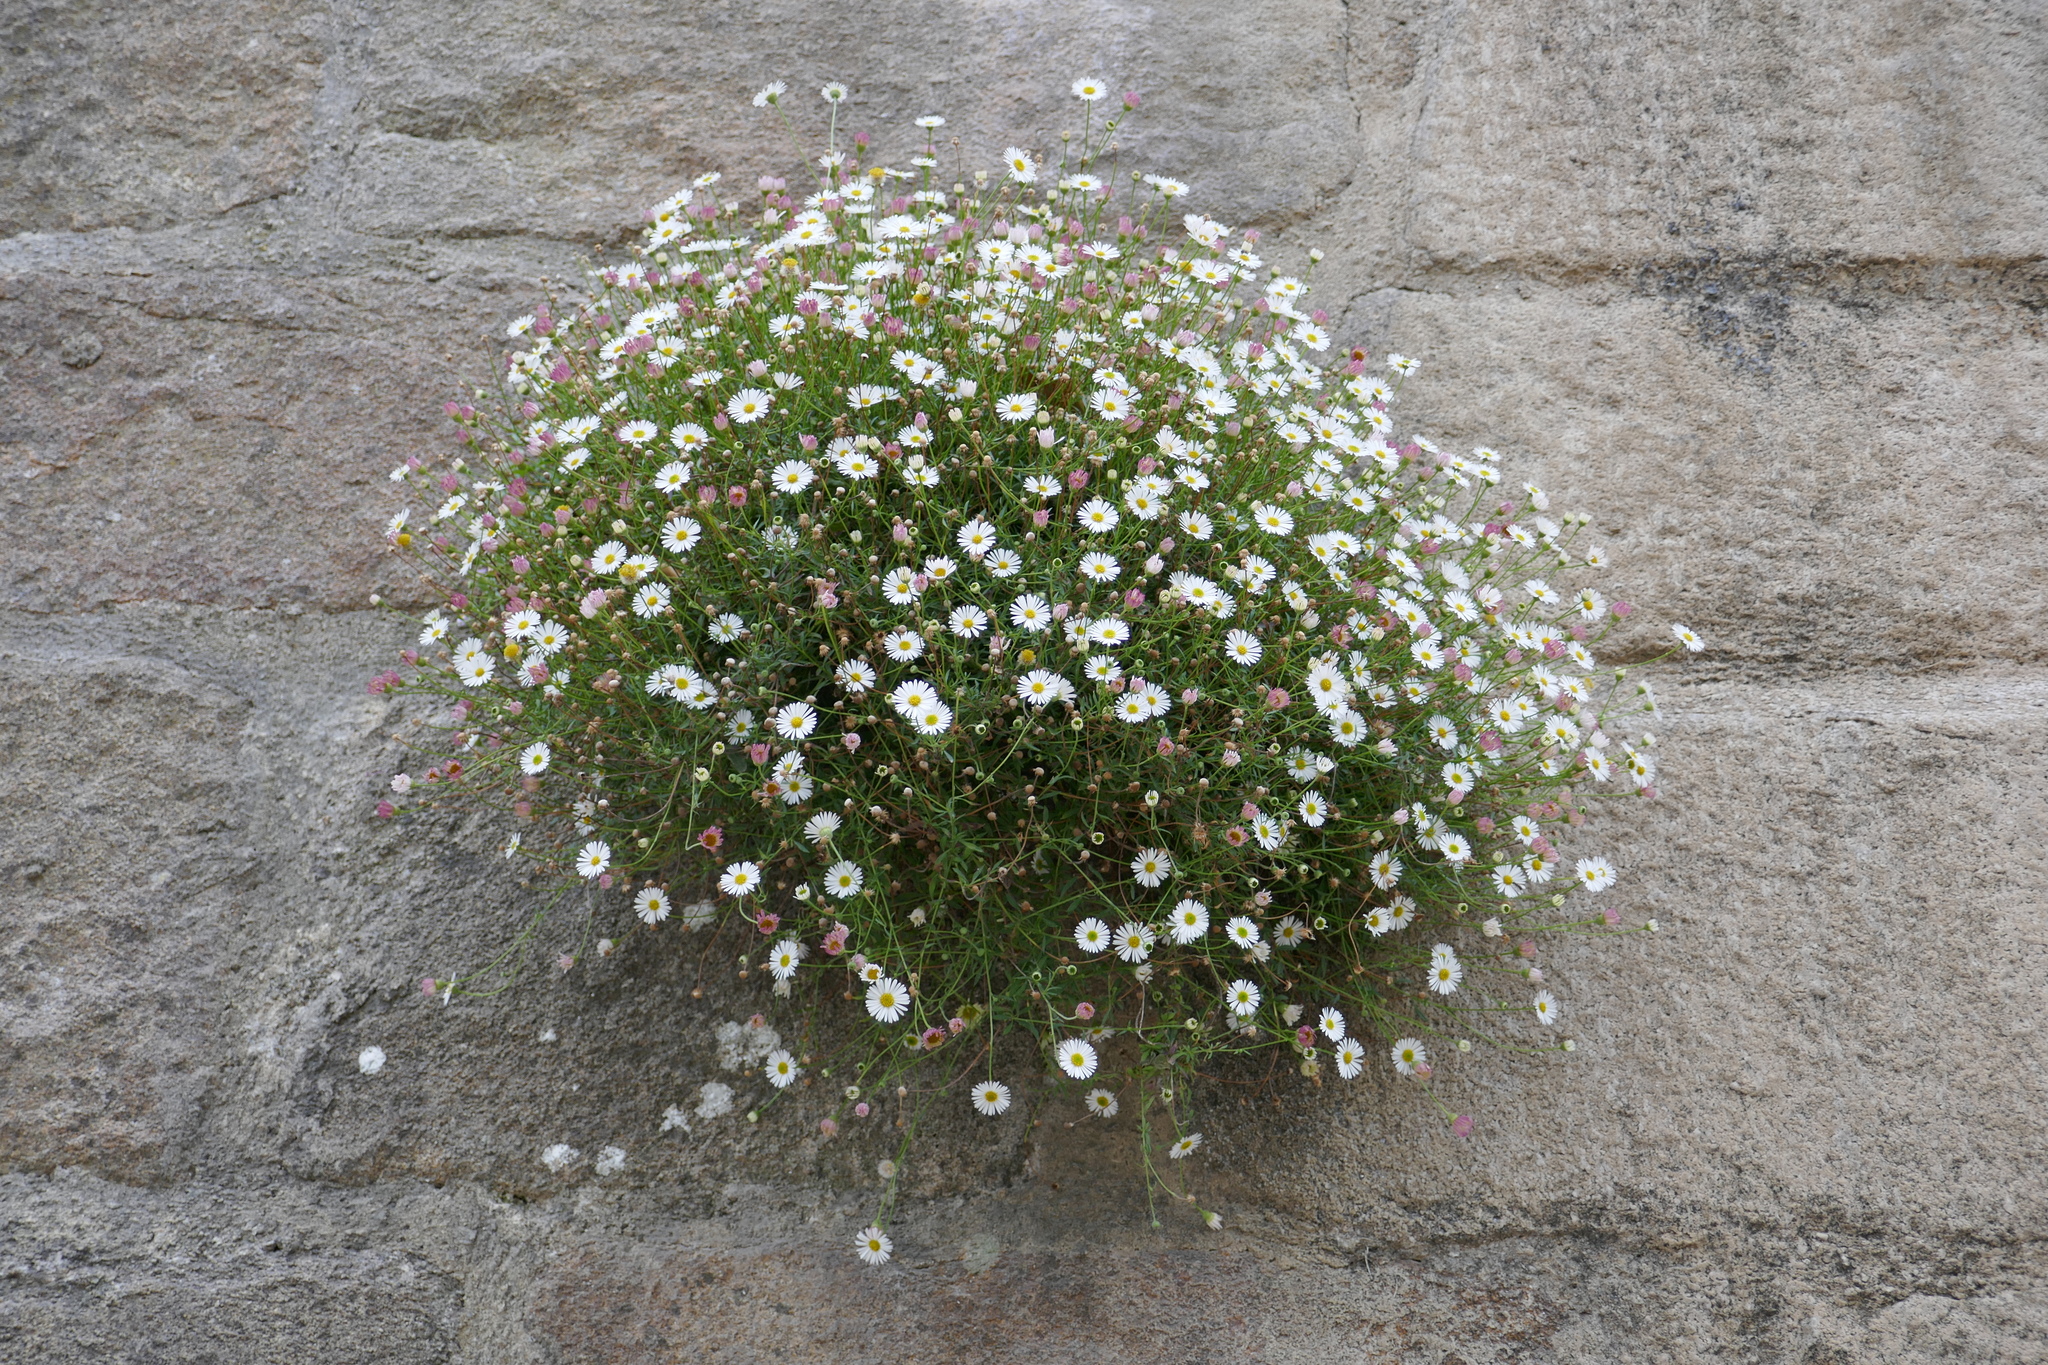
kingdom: Plantae
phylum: Tracheophyta
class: Magnoliopsida
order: Asterales
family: Asteraceae
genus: Erigeron
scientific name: Erigeron karvinskianus
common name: Mexican fleabane
